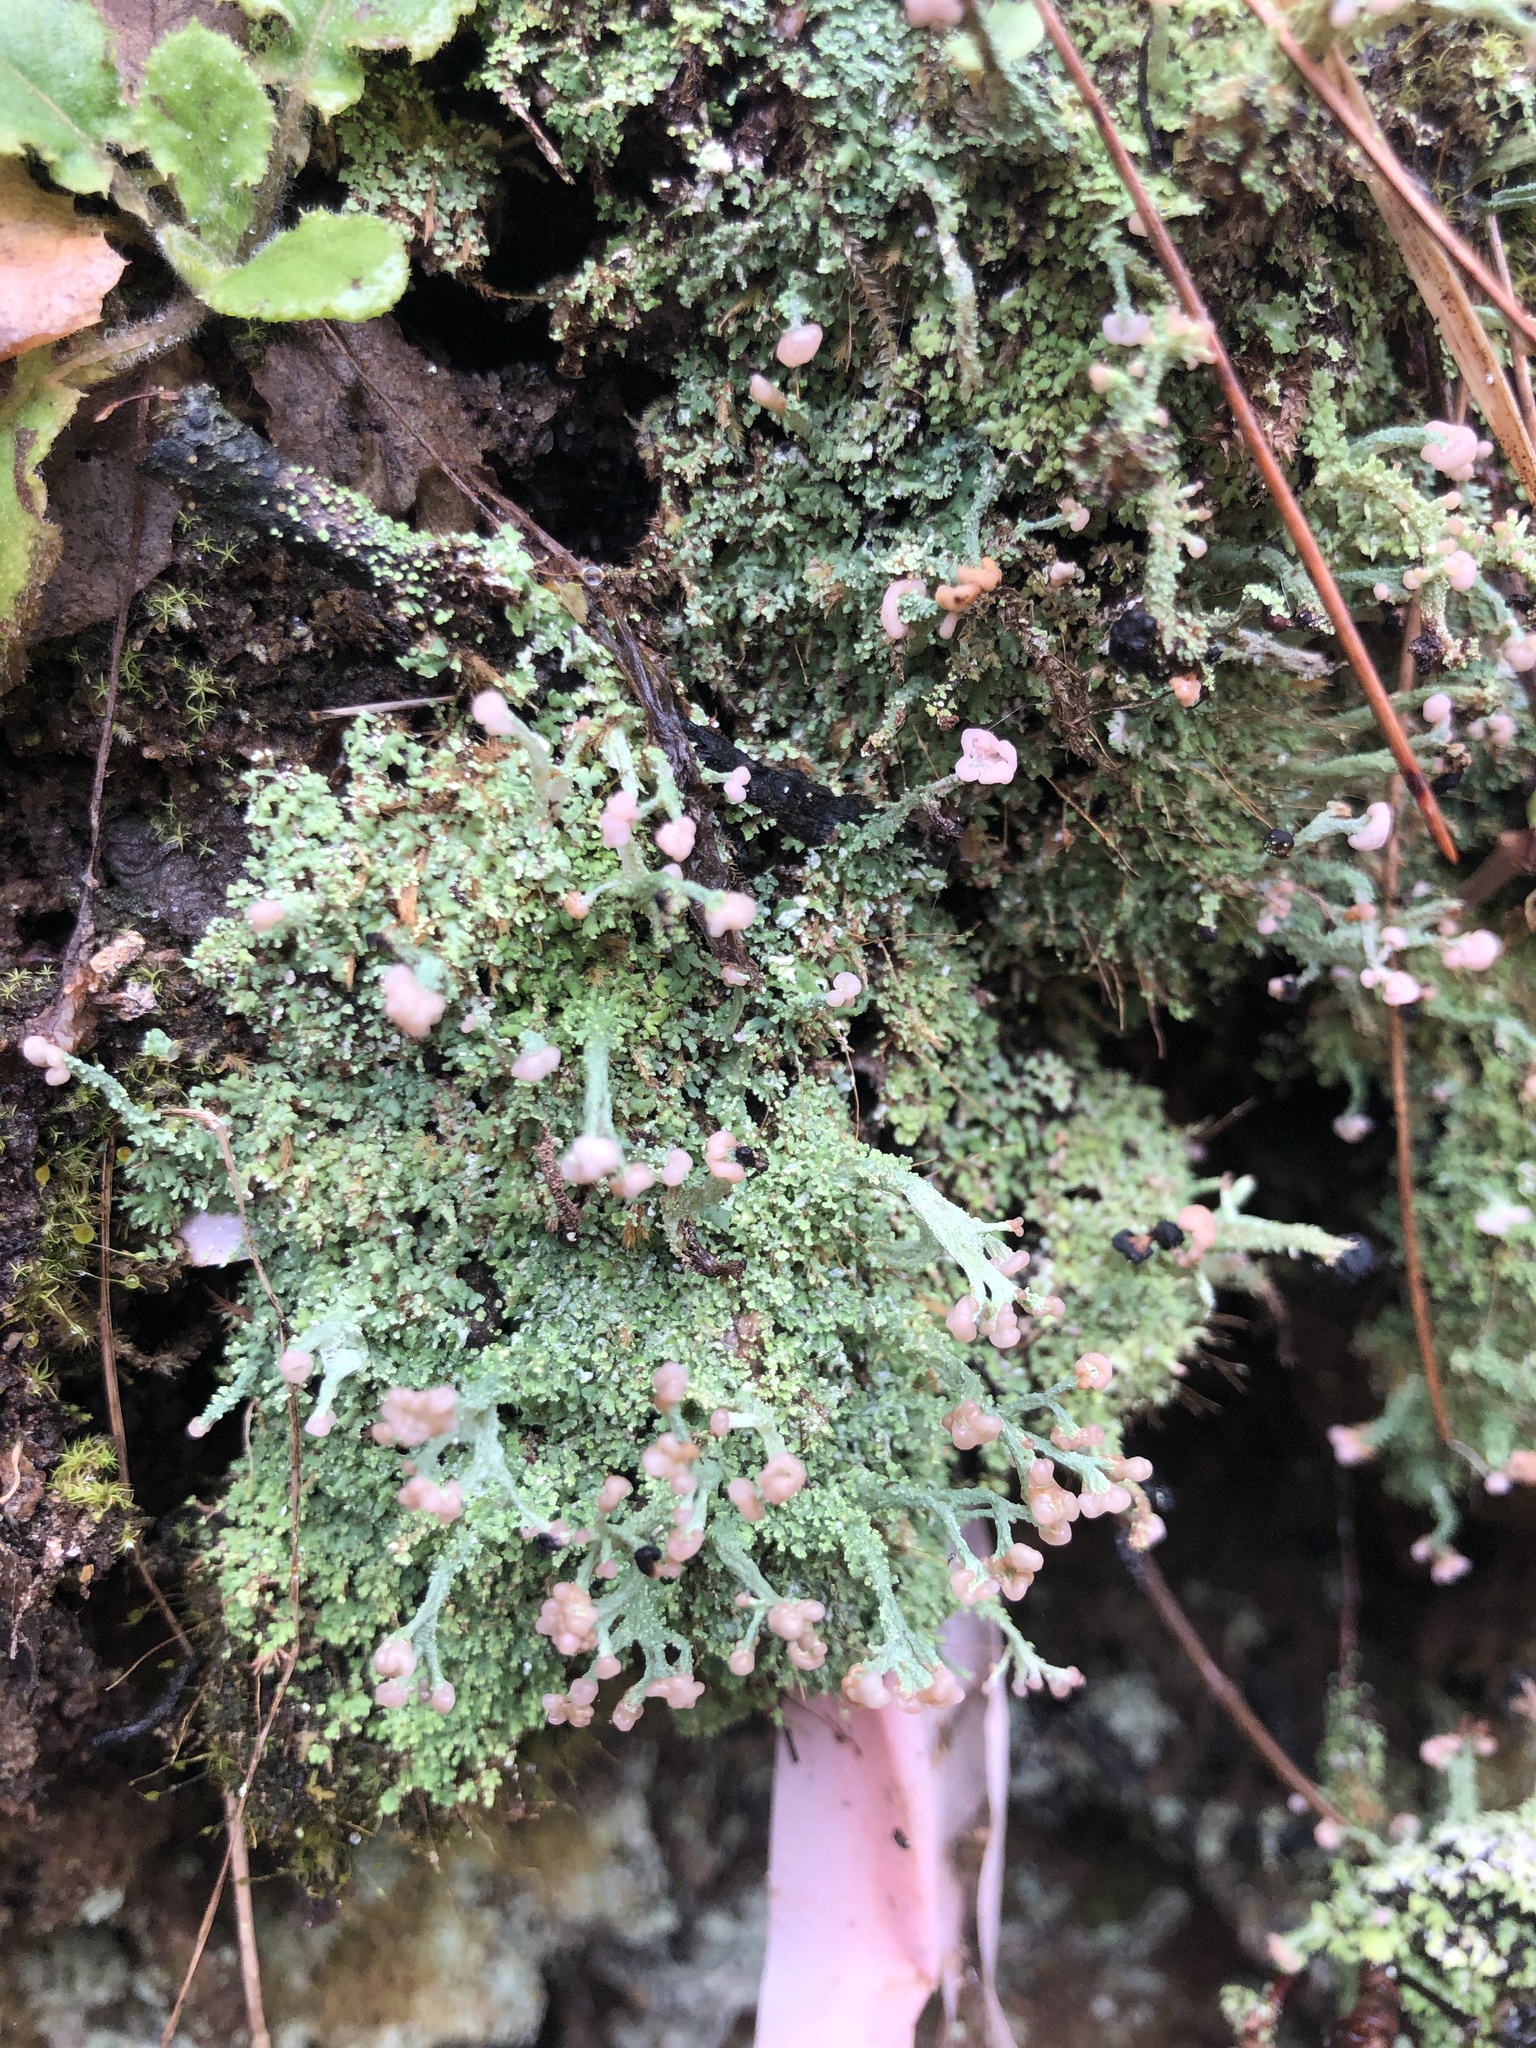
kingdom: Fungi
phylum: Ascomycota
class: Lecanoromycetes
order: Lecanorales
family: Cladoniaceae
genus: Cladonia
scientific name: Cladonia peziziformis
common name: Cup lichen
